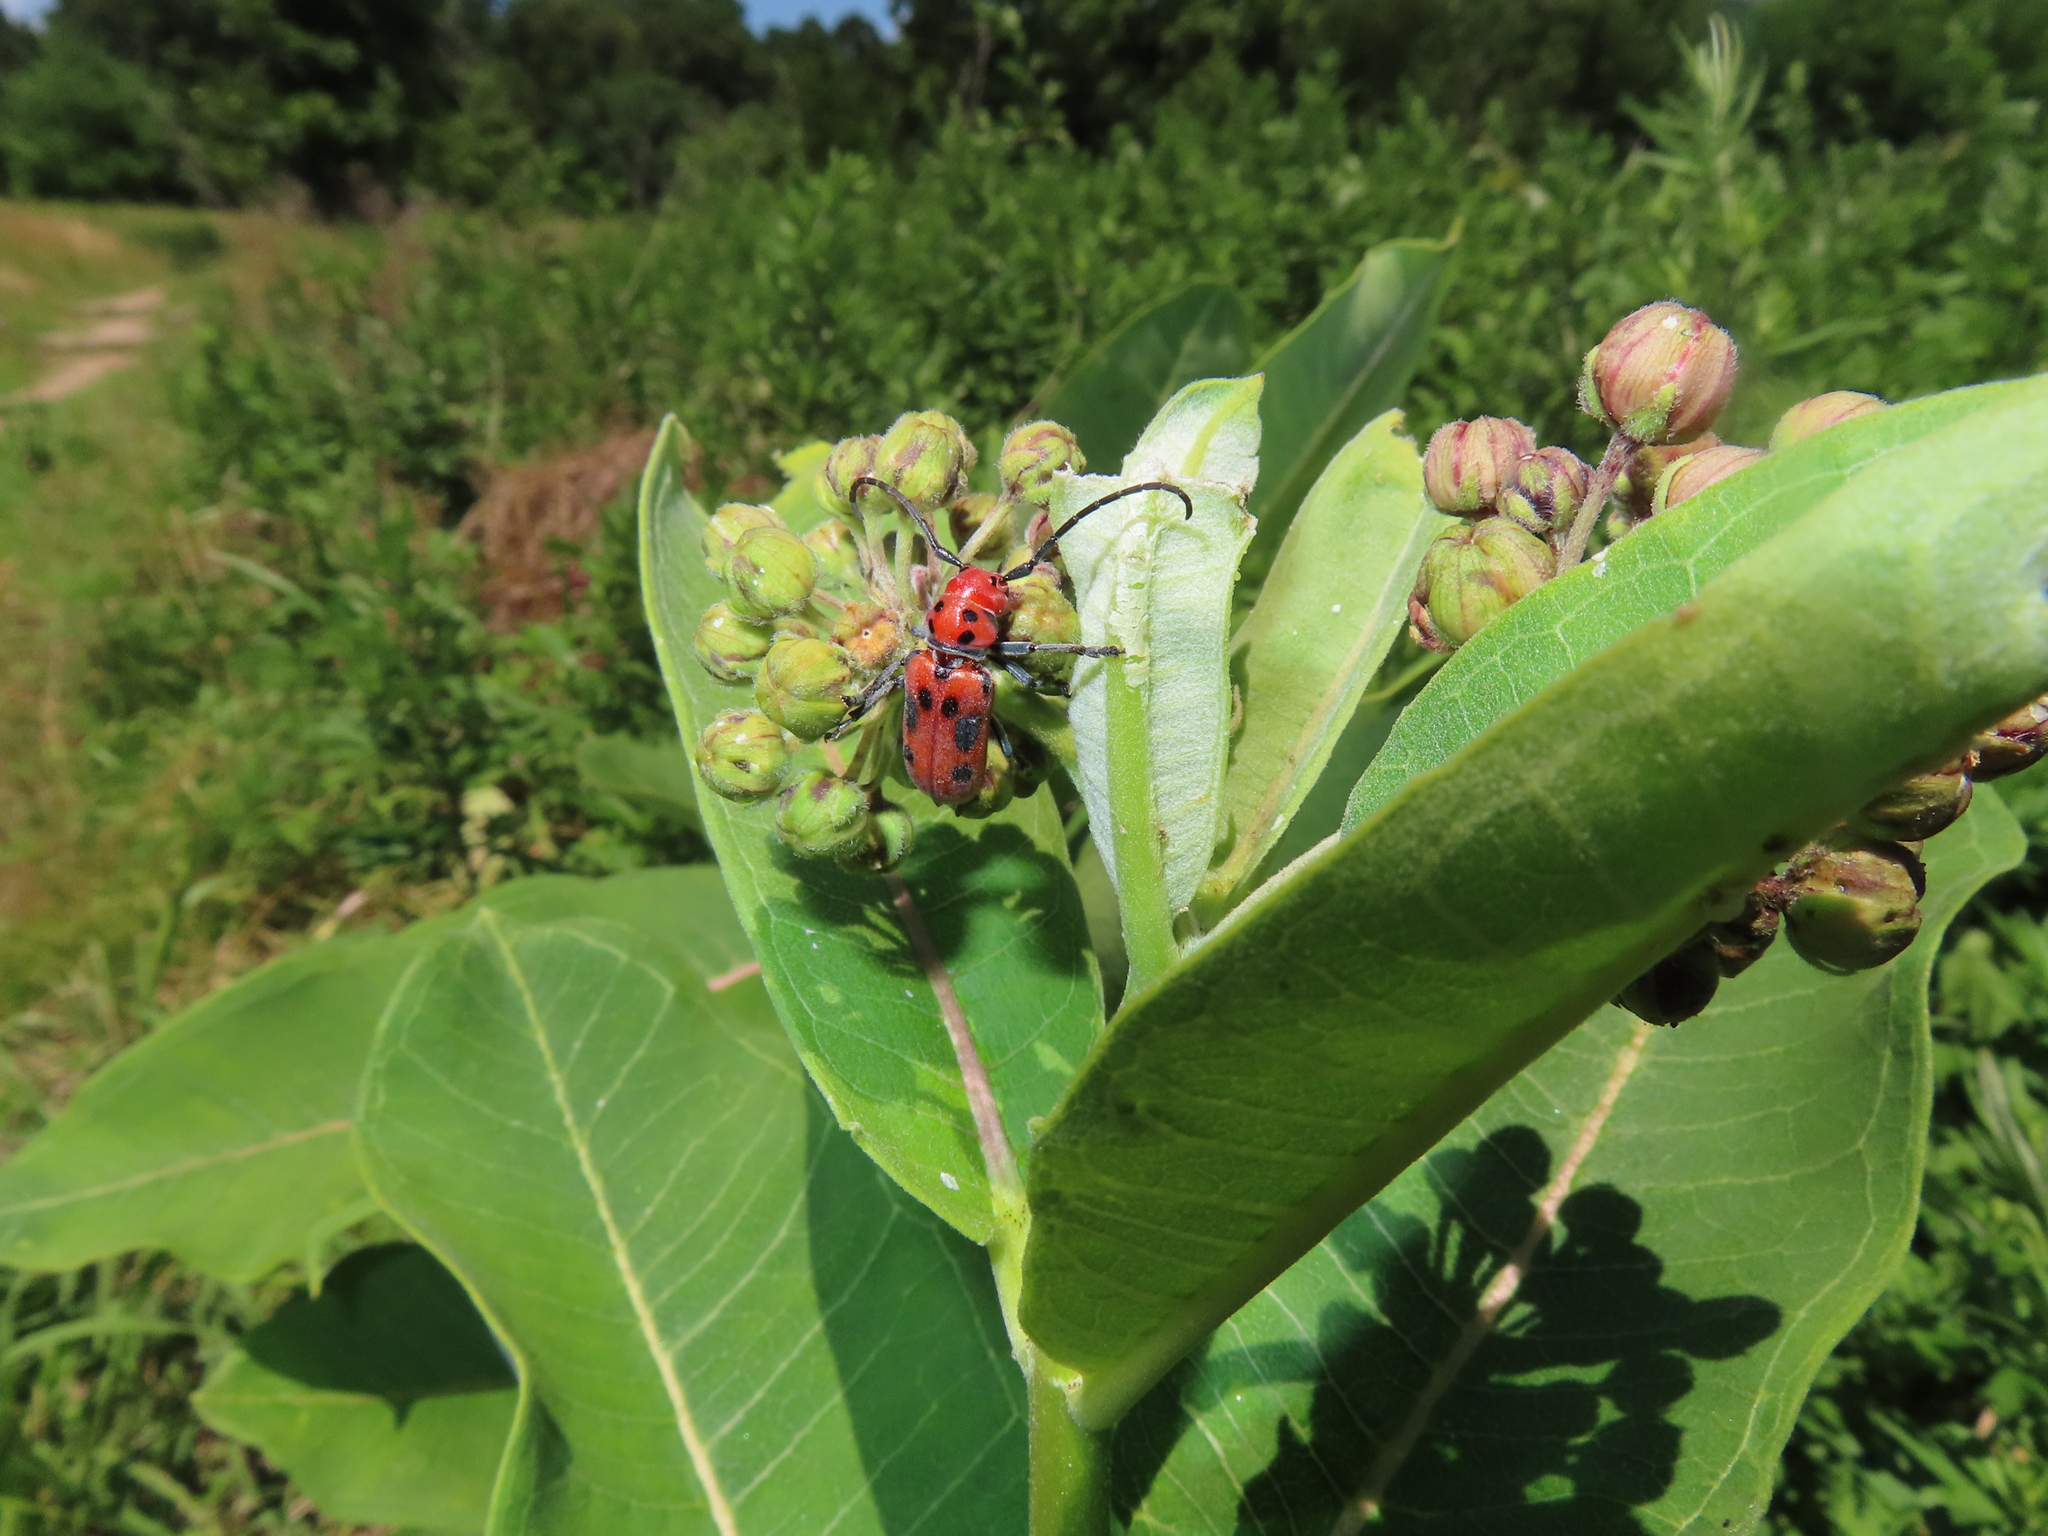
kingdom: Animalia
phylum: Arthropoda
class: Insecta
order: Coleoptera
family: Cerambycidae
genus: Tetraopes
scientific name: Tetraopes tetrophthalmus
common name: Red milkweed beetle
